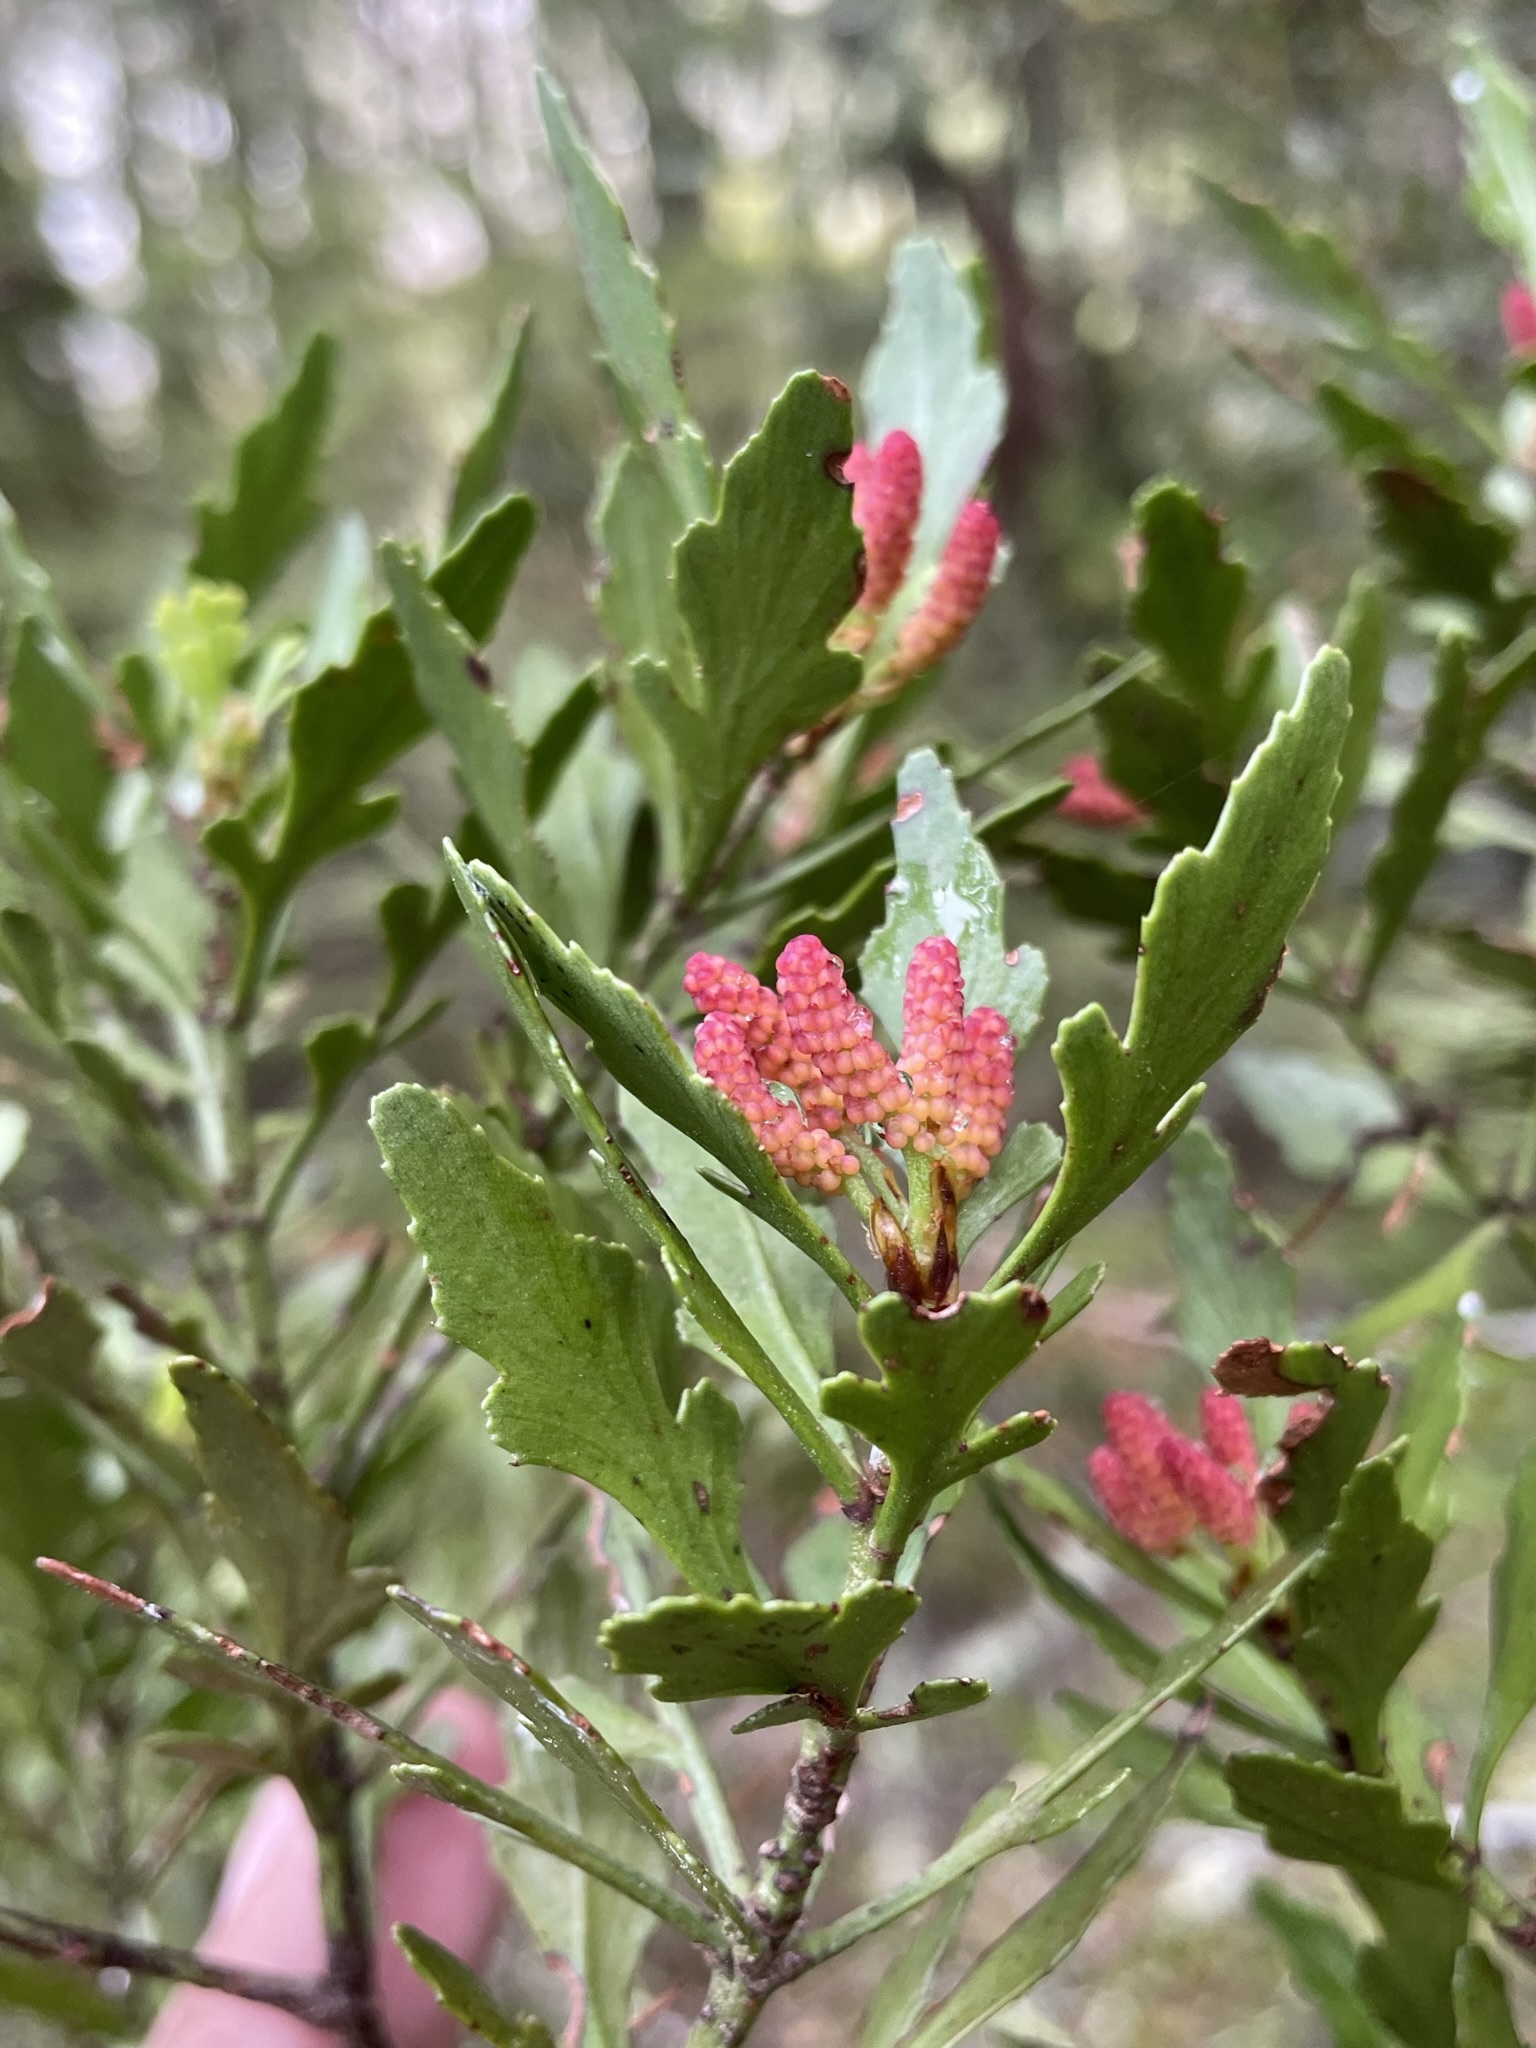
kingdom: Plantae
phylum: Tracheophyta
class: Pinopsida
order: Pinales
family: Phyllocladaceae
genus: Phyllocladus
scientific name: Phyllocladus trichomanoides
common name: Celery pine
